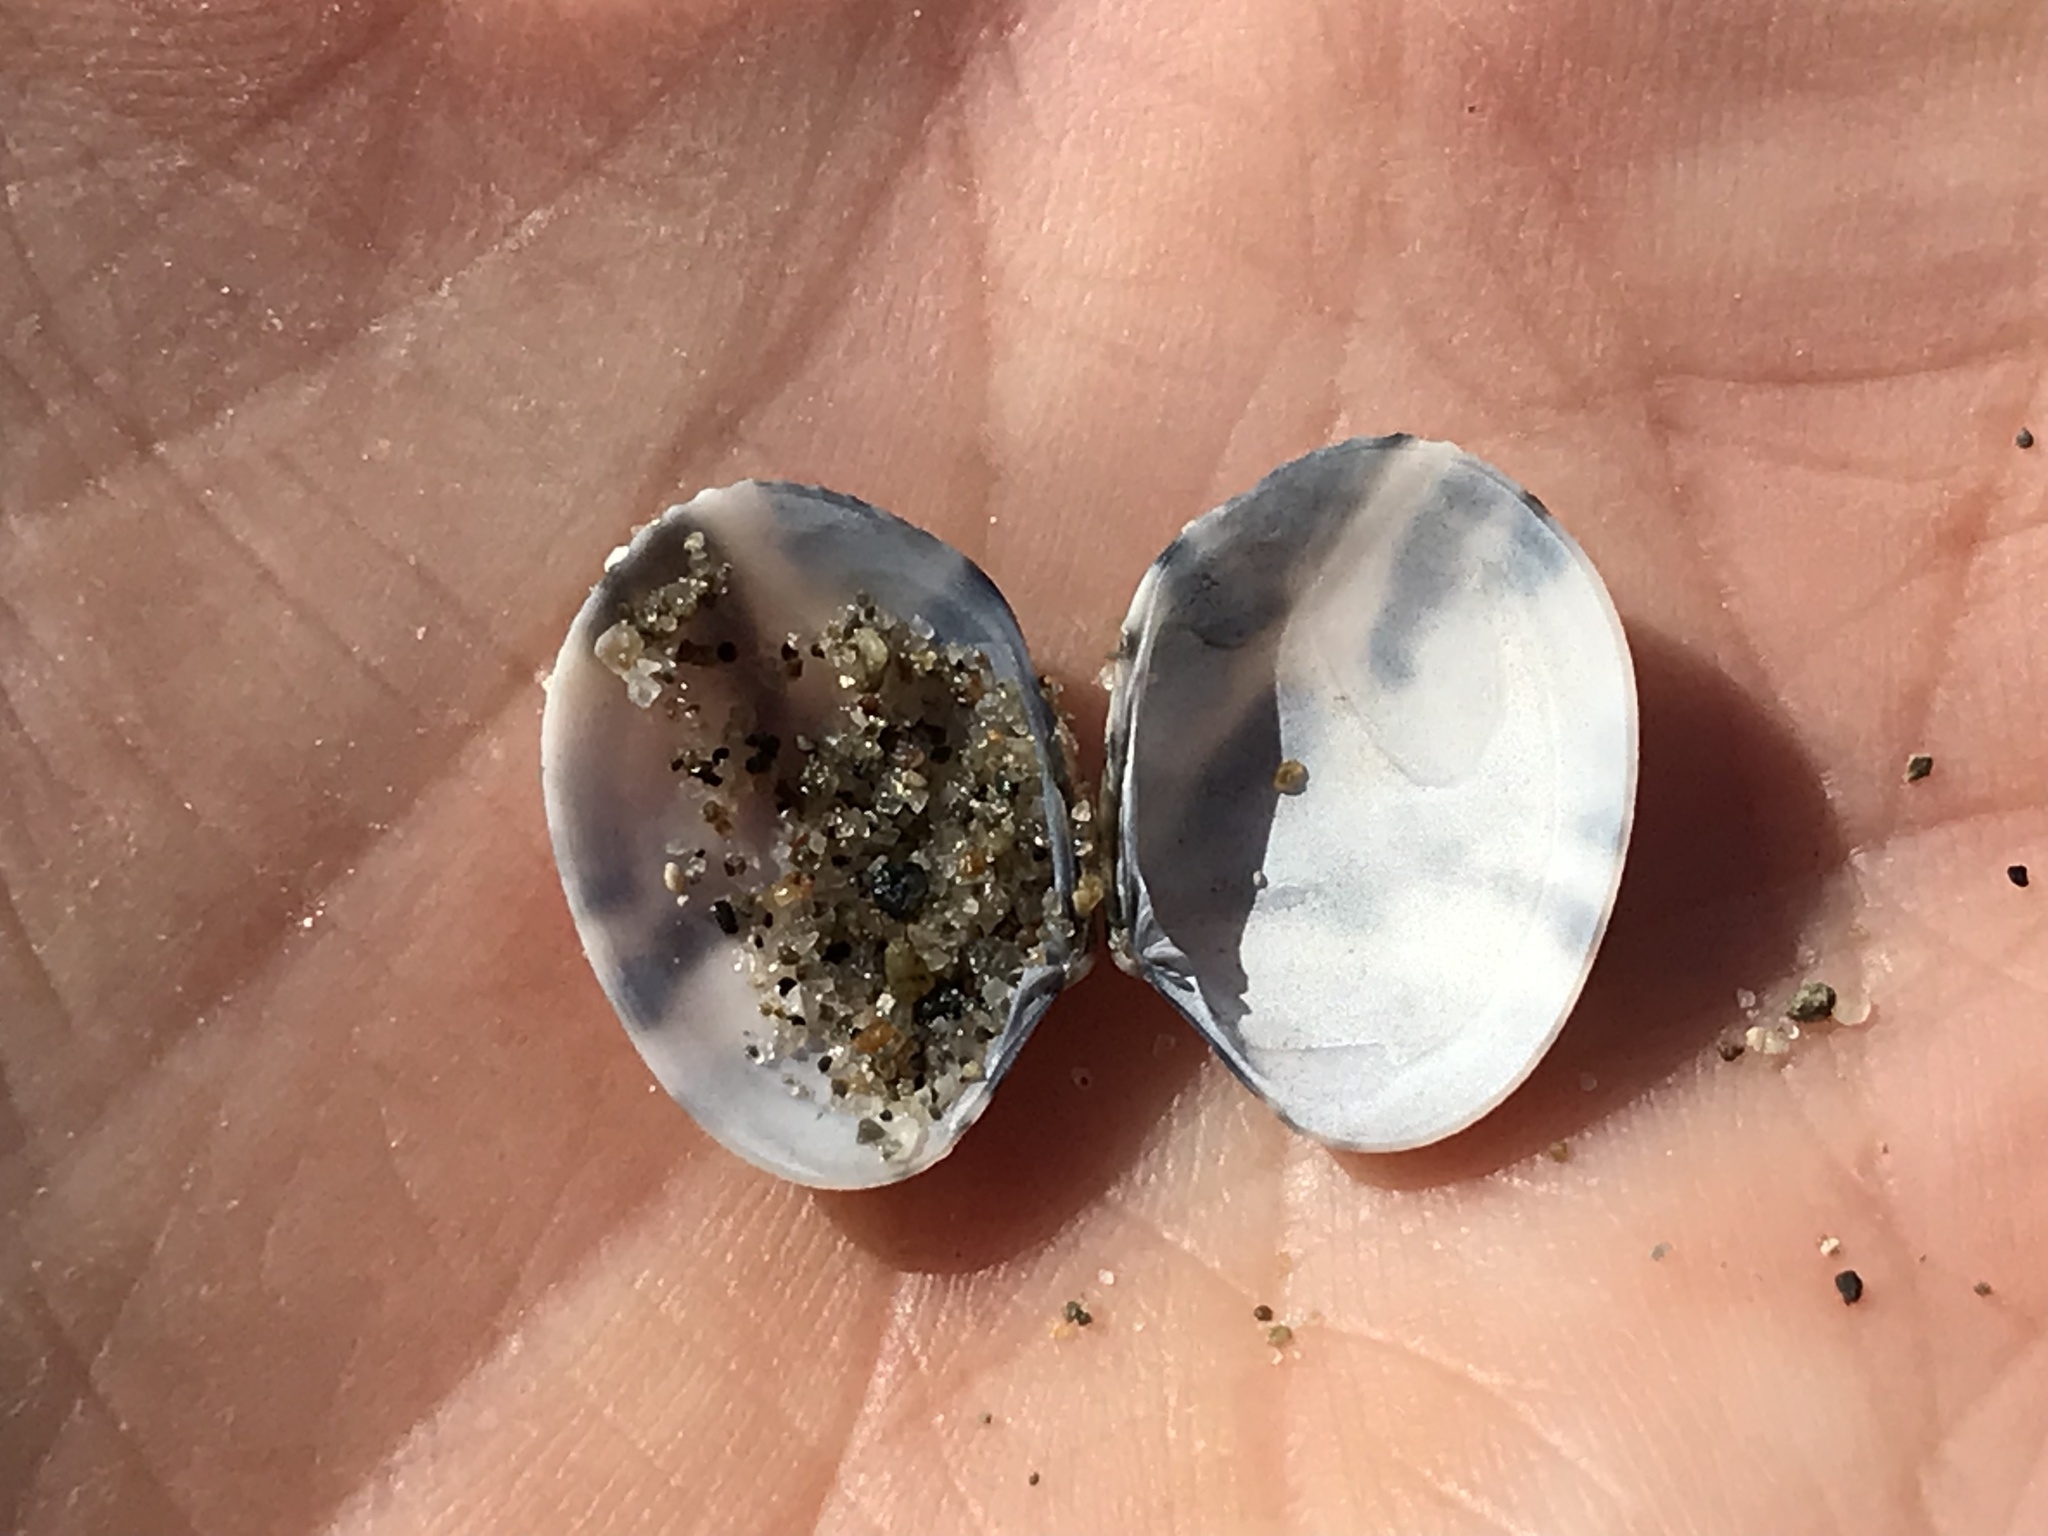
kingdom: Animalia
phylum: Mollusca
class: Bivalvia
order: Venerida
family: Veneridae
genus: Ruditapes
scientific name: Ruditapes philippinarum
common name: Manila clam
